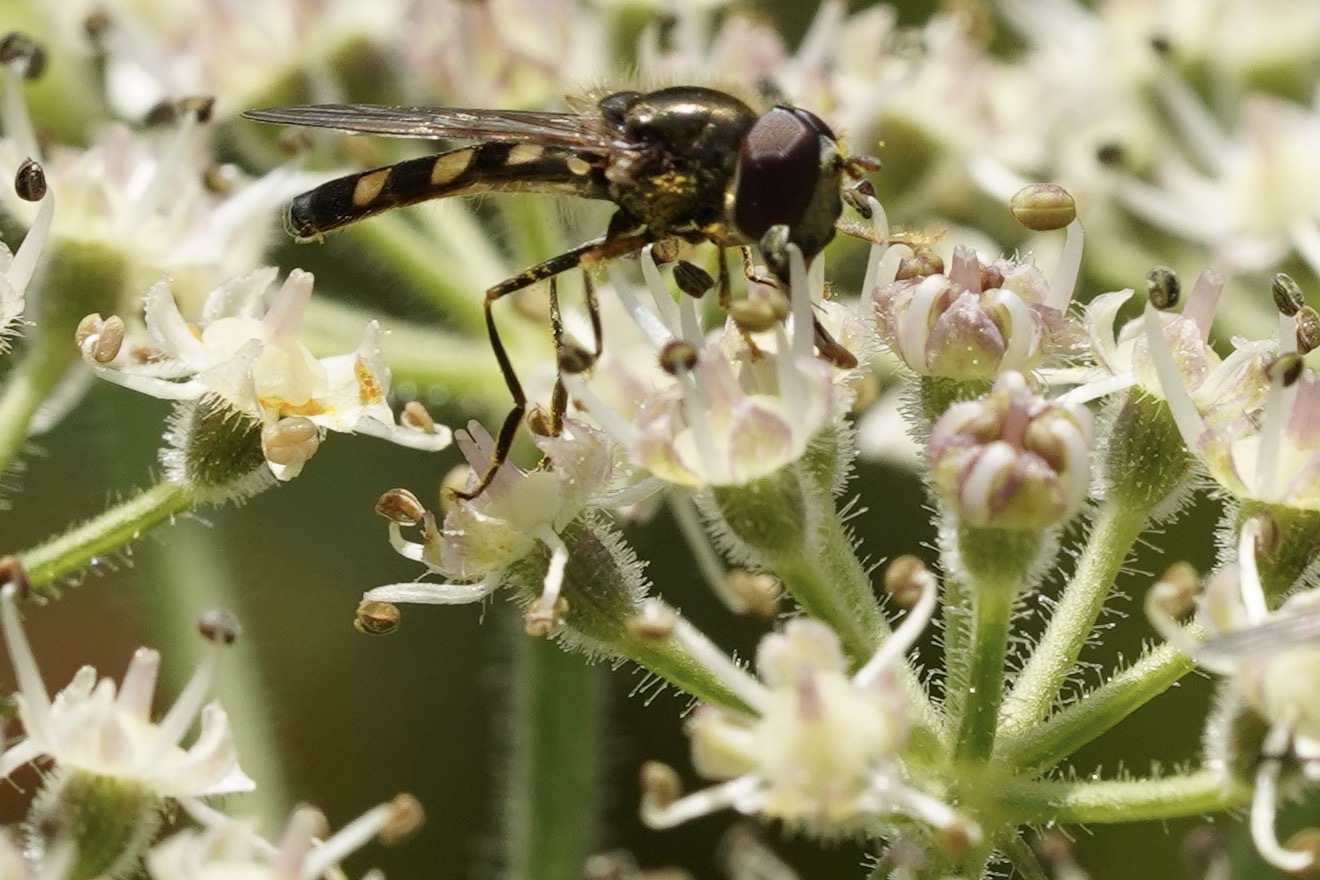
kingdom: Animalia
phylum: Arthropoda
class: Insecta
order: Diptera
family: Syrphidae
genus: Platycheirus
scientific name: Platycheirus scutatus
